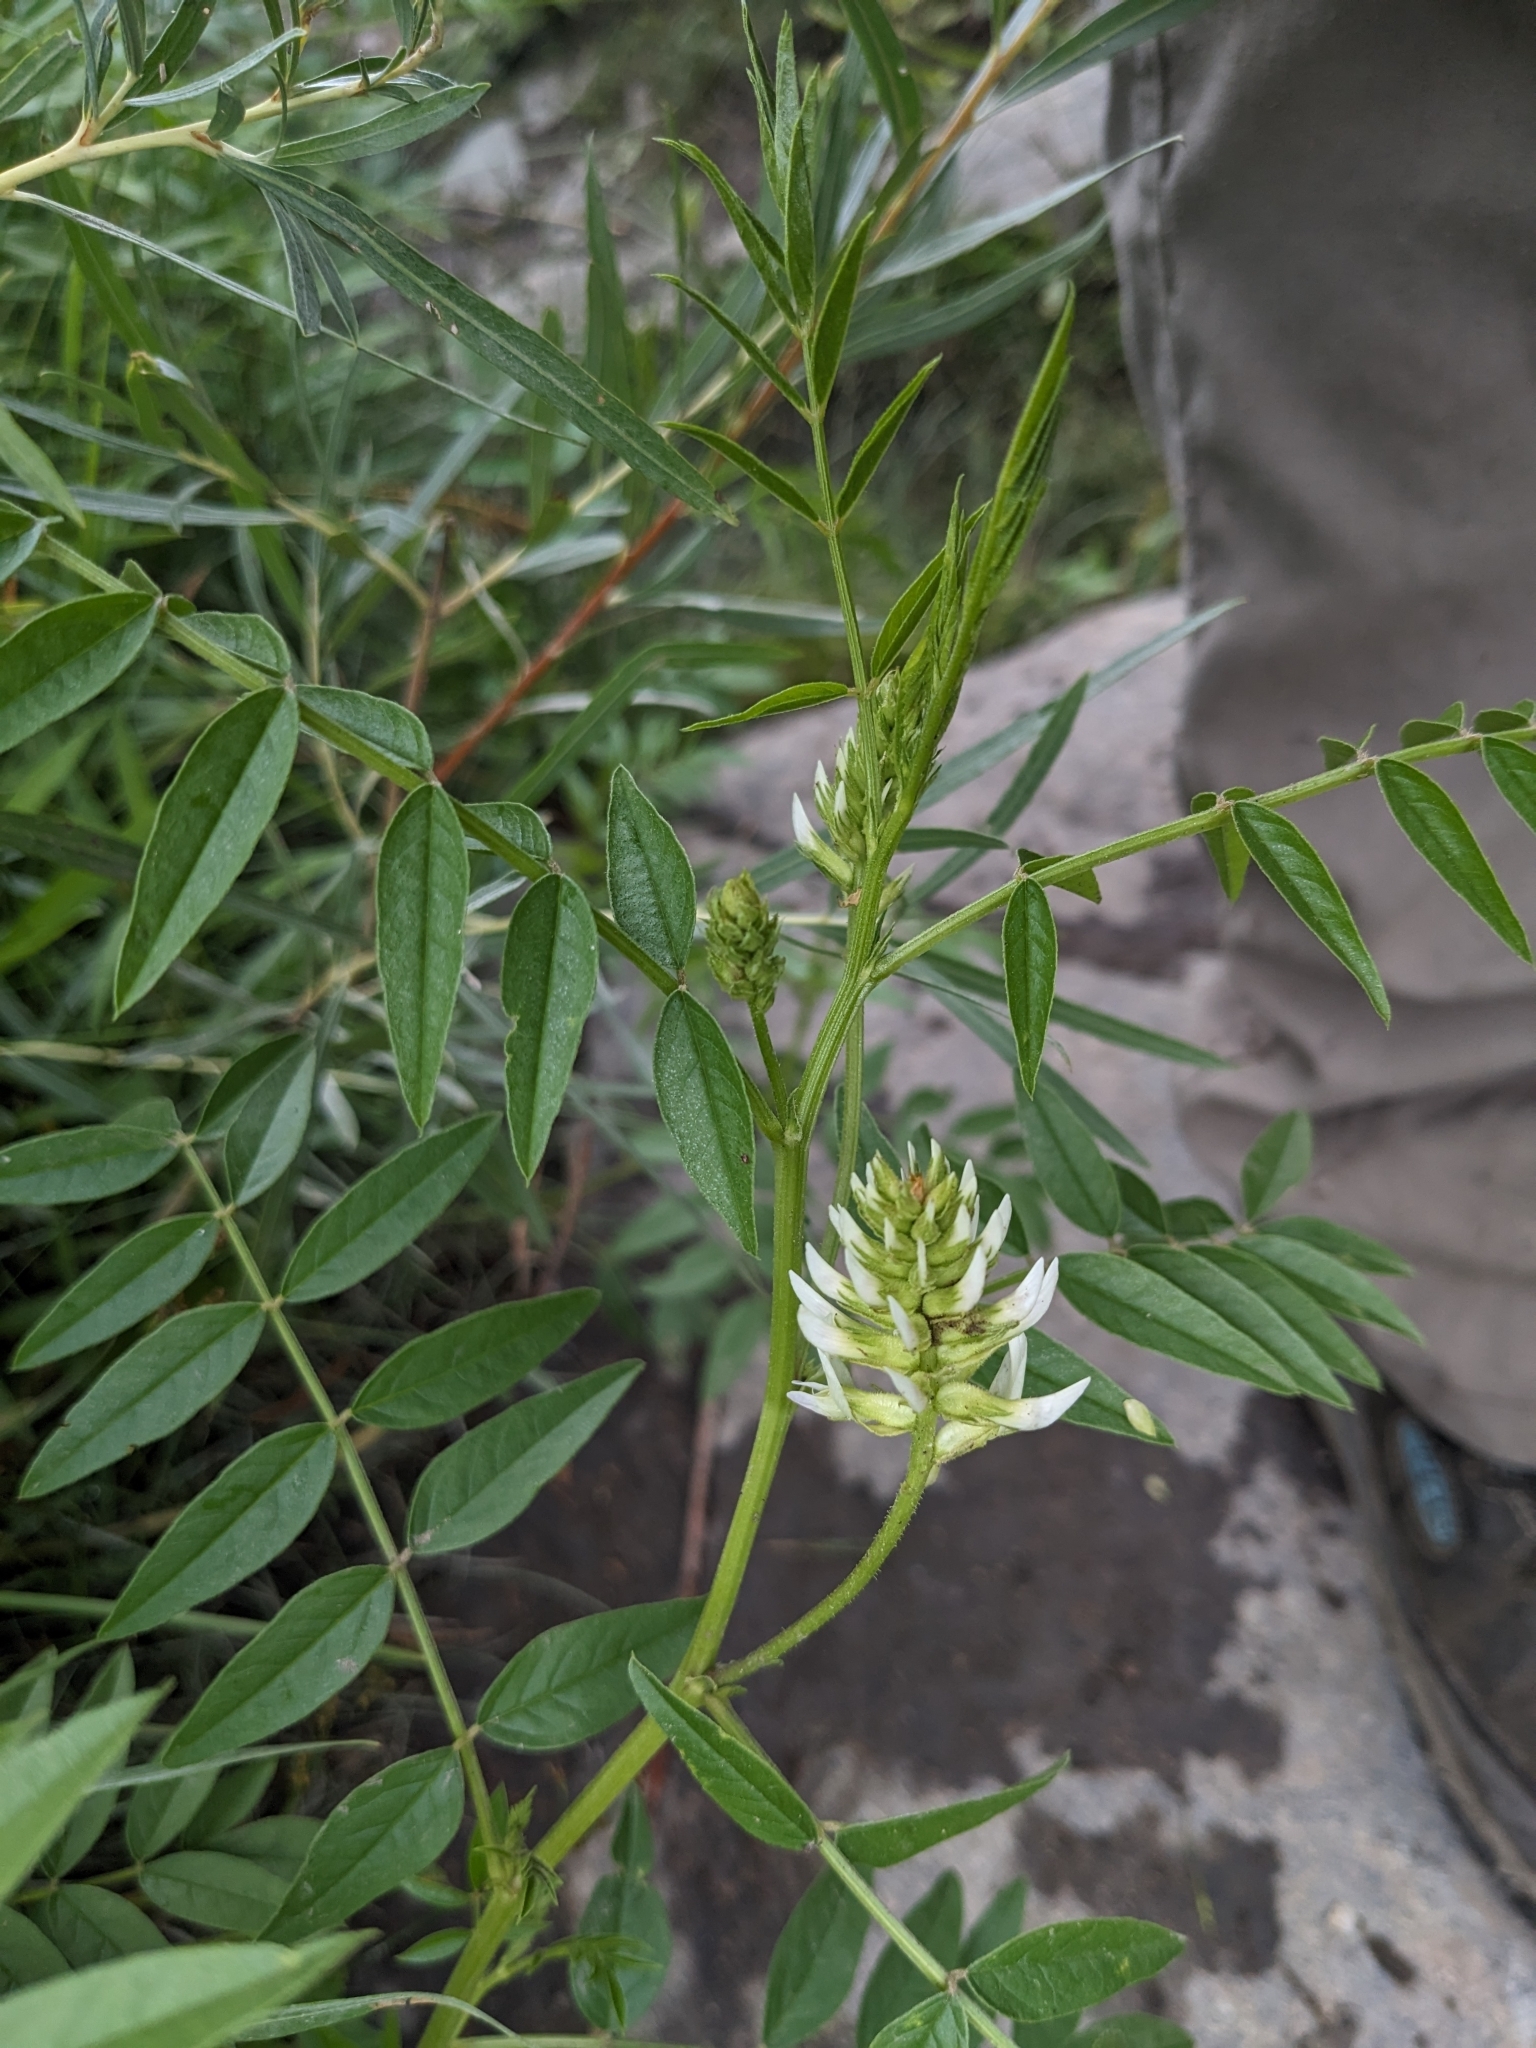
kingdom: Plantae
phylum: Tracheophyta
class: Magnoliopsida
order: Fabales
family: Fabaceae
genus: Glycyrrhiza
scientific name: Glycyrrhiza lepidota
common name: American liquorice
